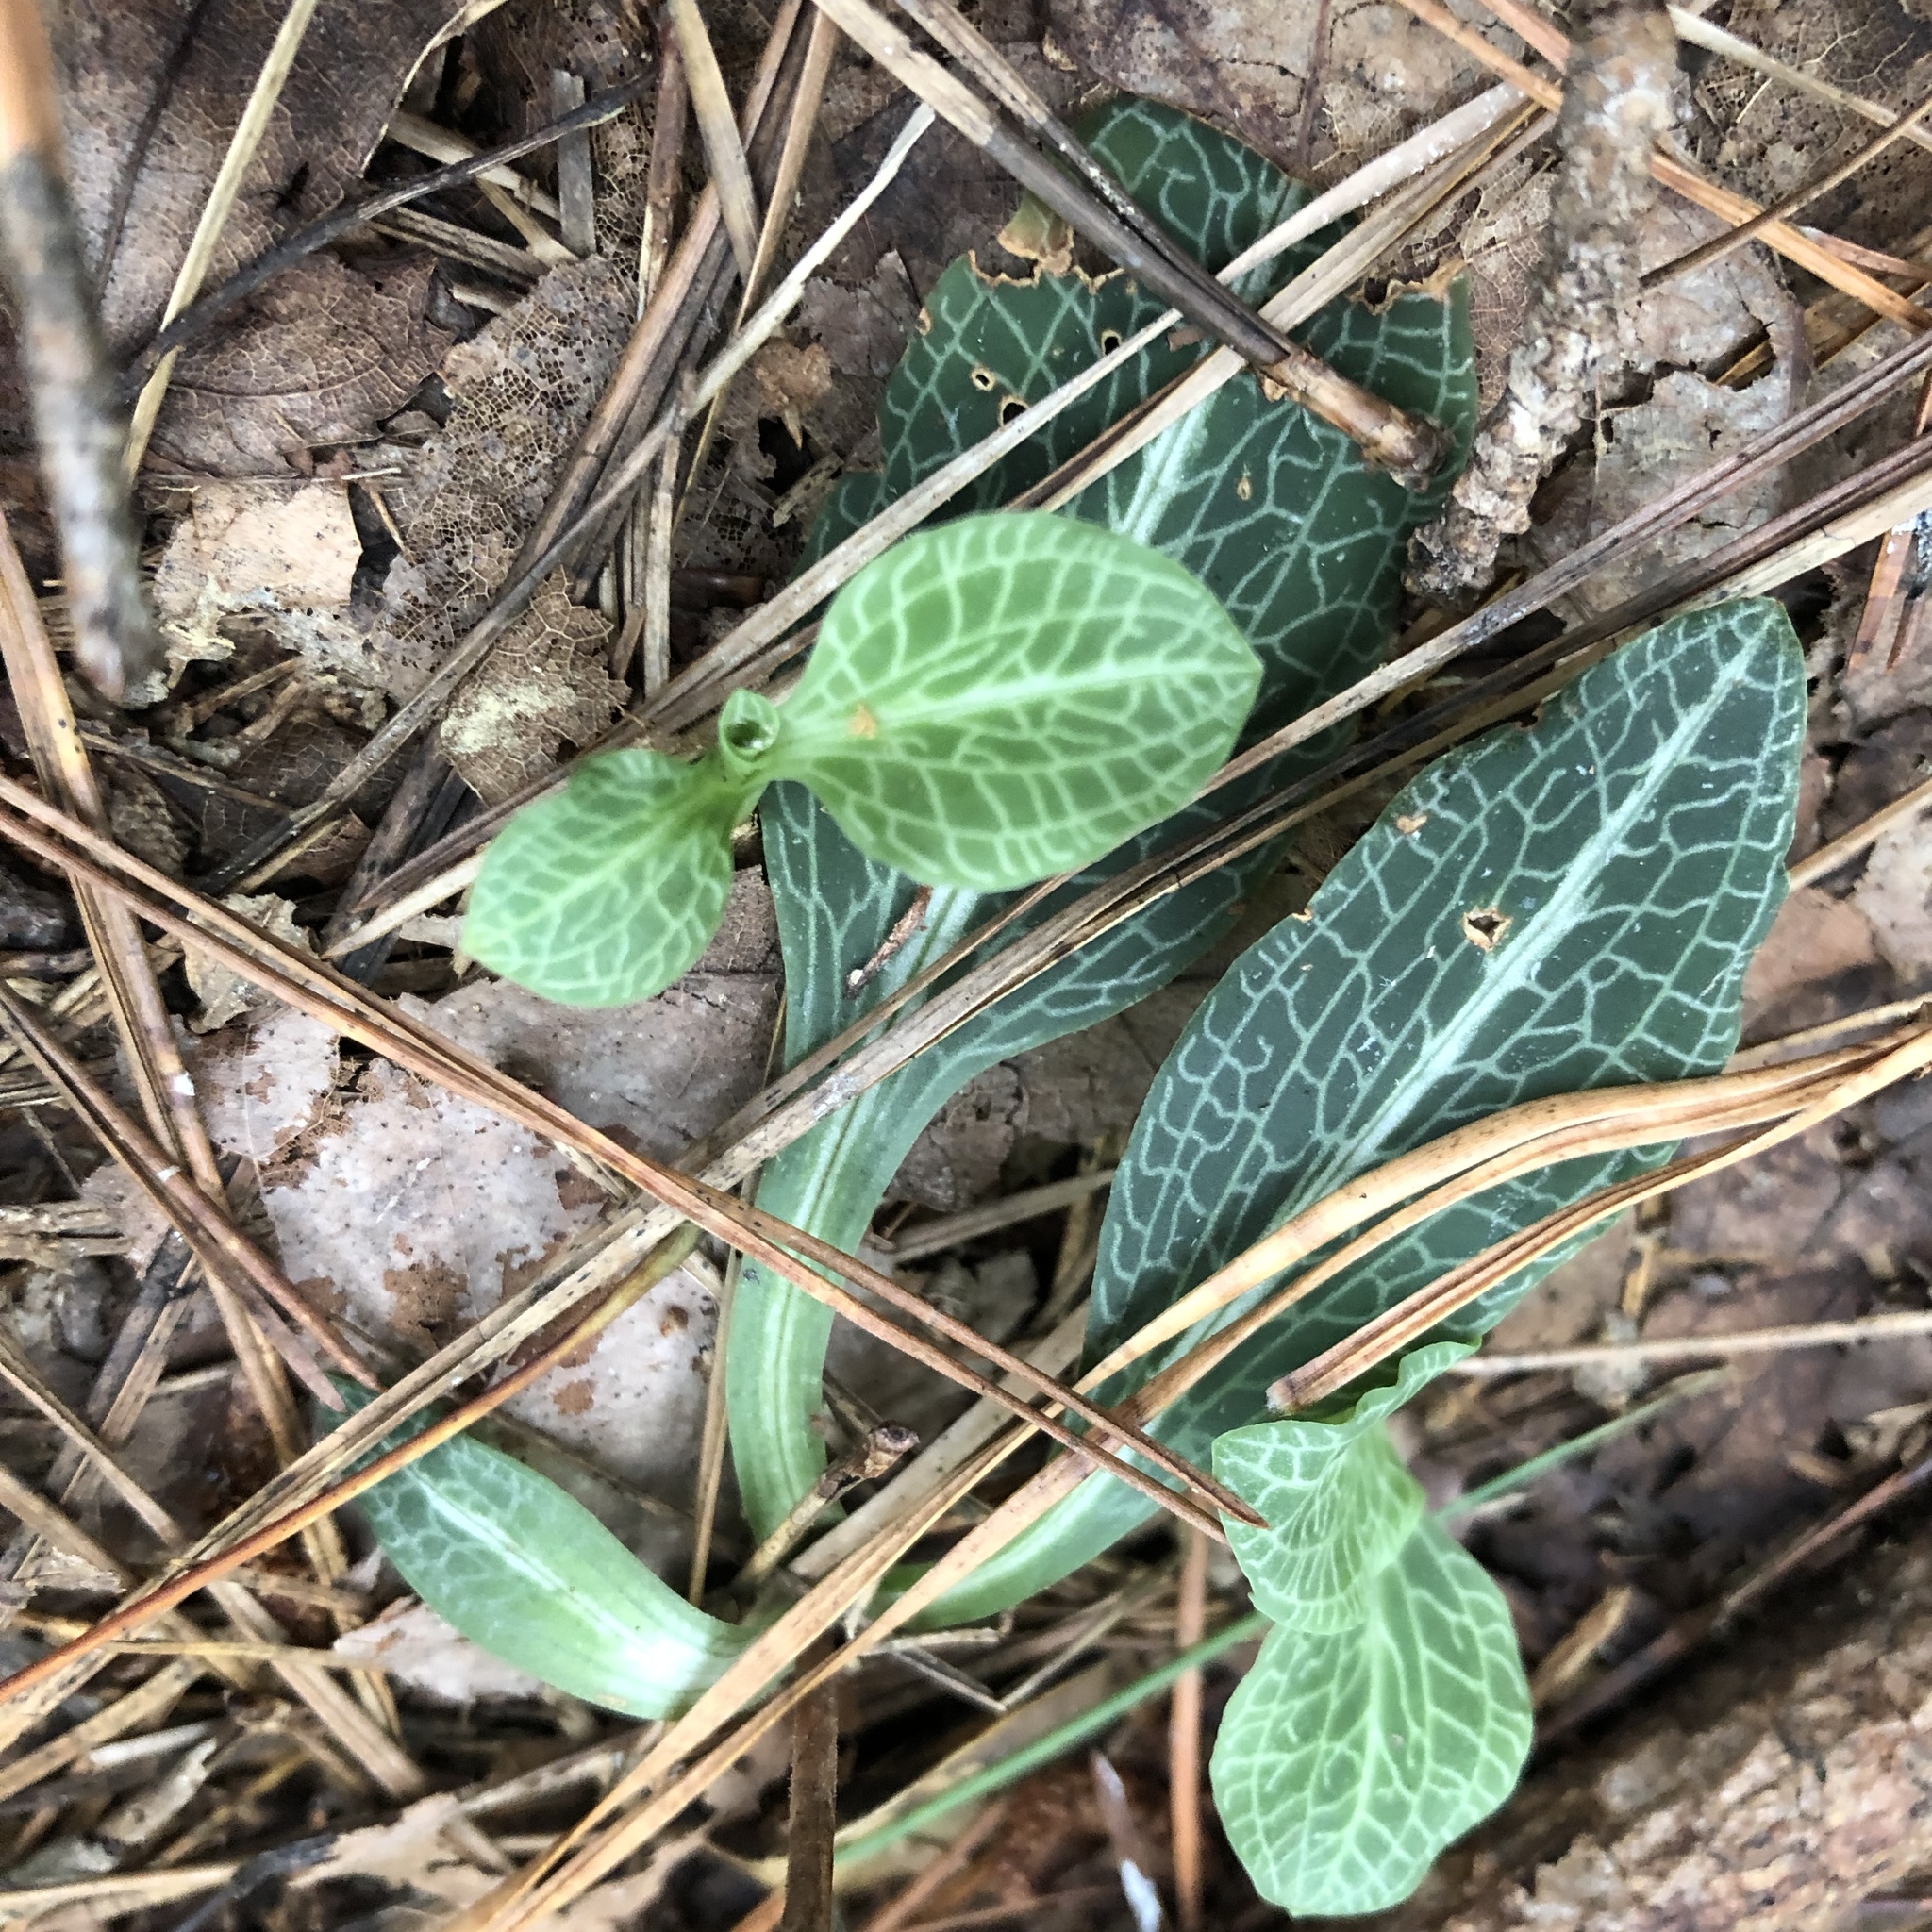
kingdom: Plantae
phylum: Tracheophyta
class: Liliopsida
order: Asparagales
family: Orchidaceae
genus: Goodyera
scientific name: Goodyera pubescens
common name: Downy rattlesnake-plantain
